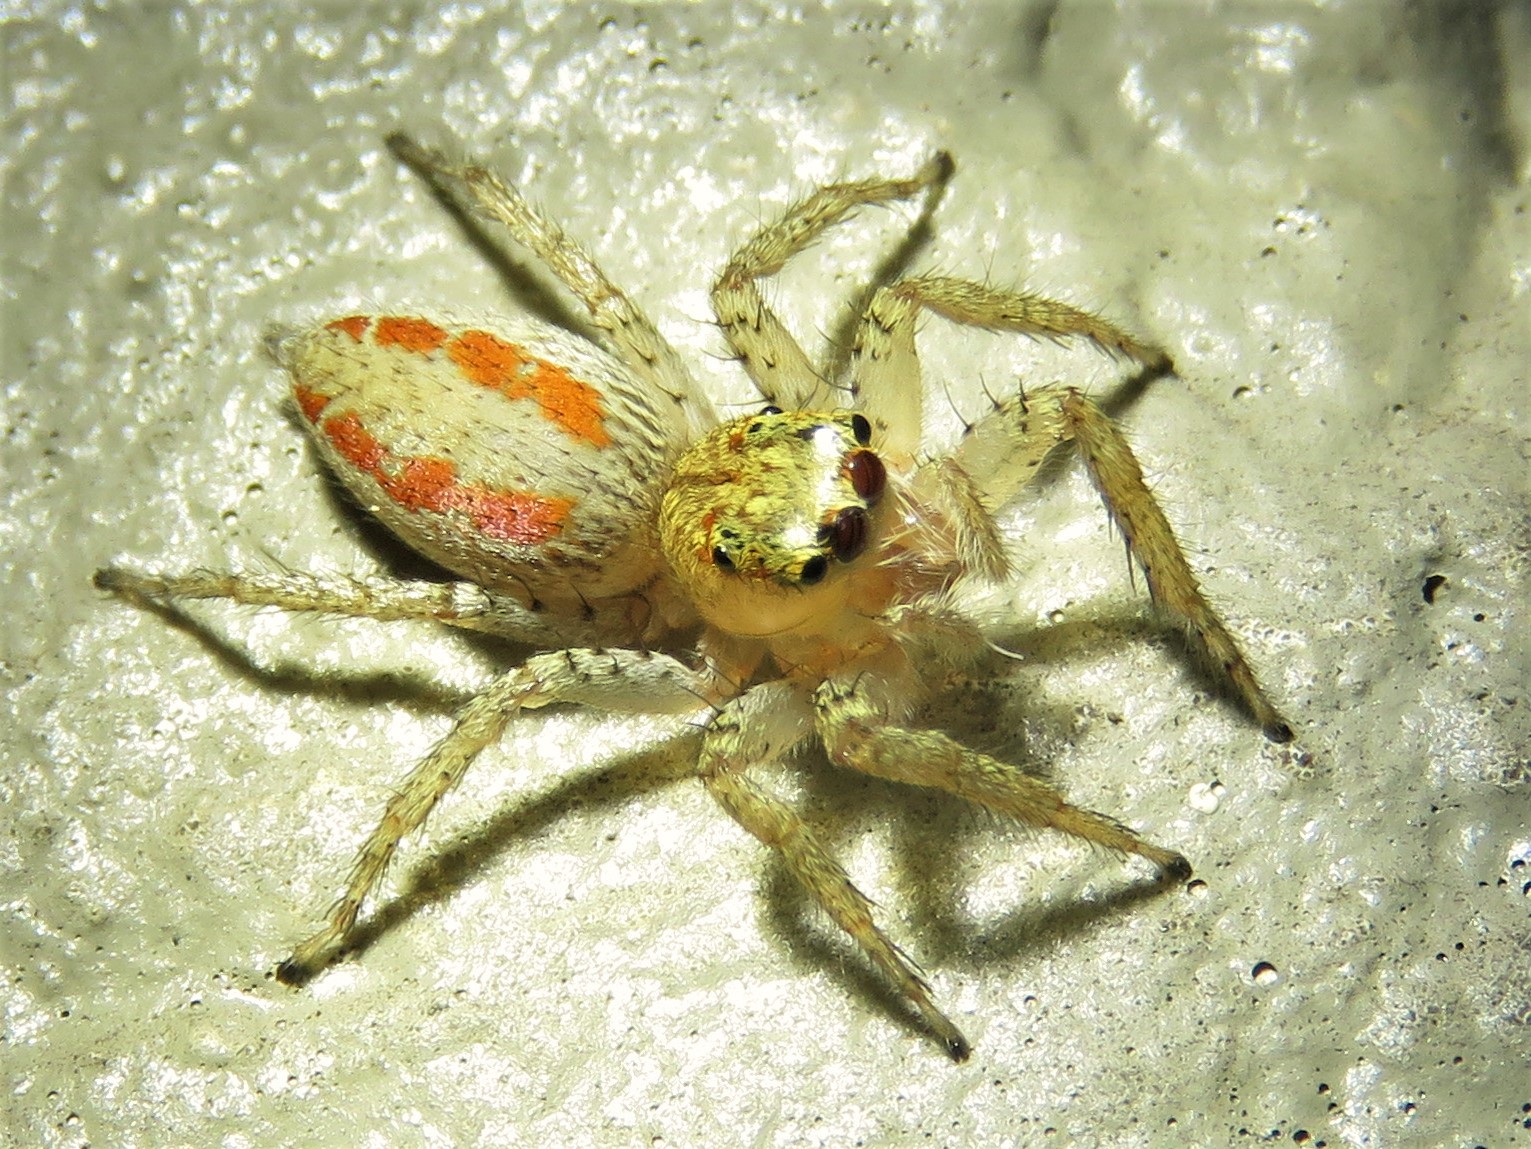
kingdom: Animalia
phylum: Arthropoda
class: Arachnida
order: Araneae
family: Salticidae
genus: Maevia
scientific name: Maevia inclemens
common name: Dimorphic jumper
